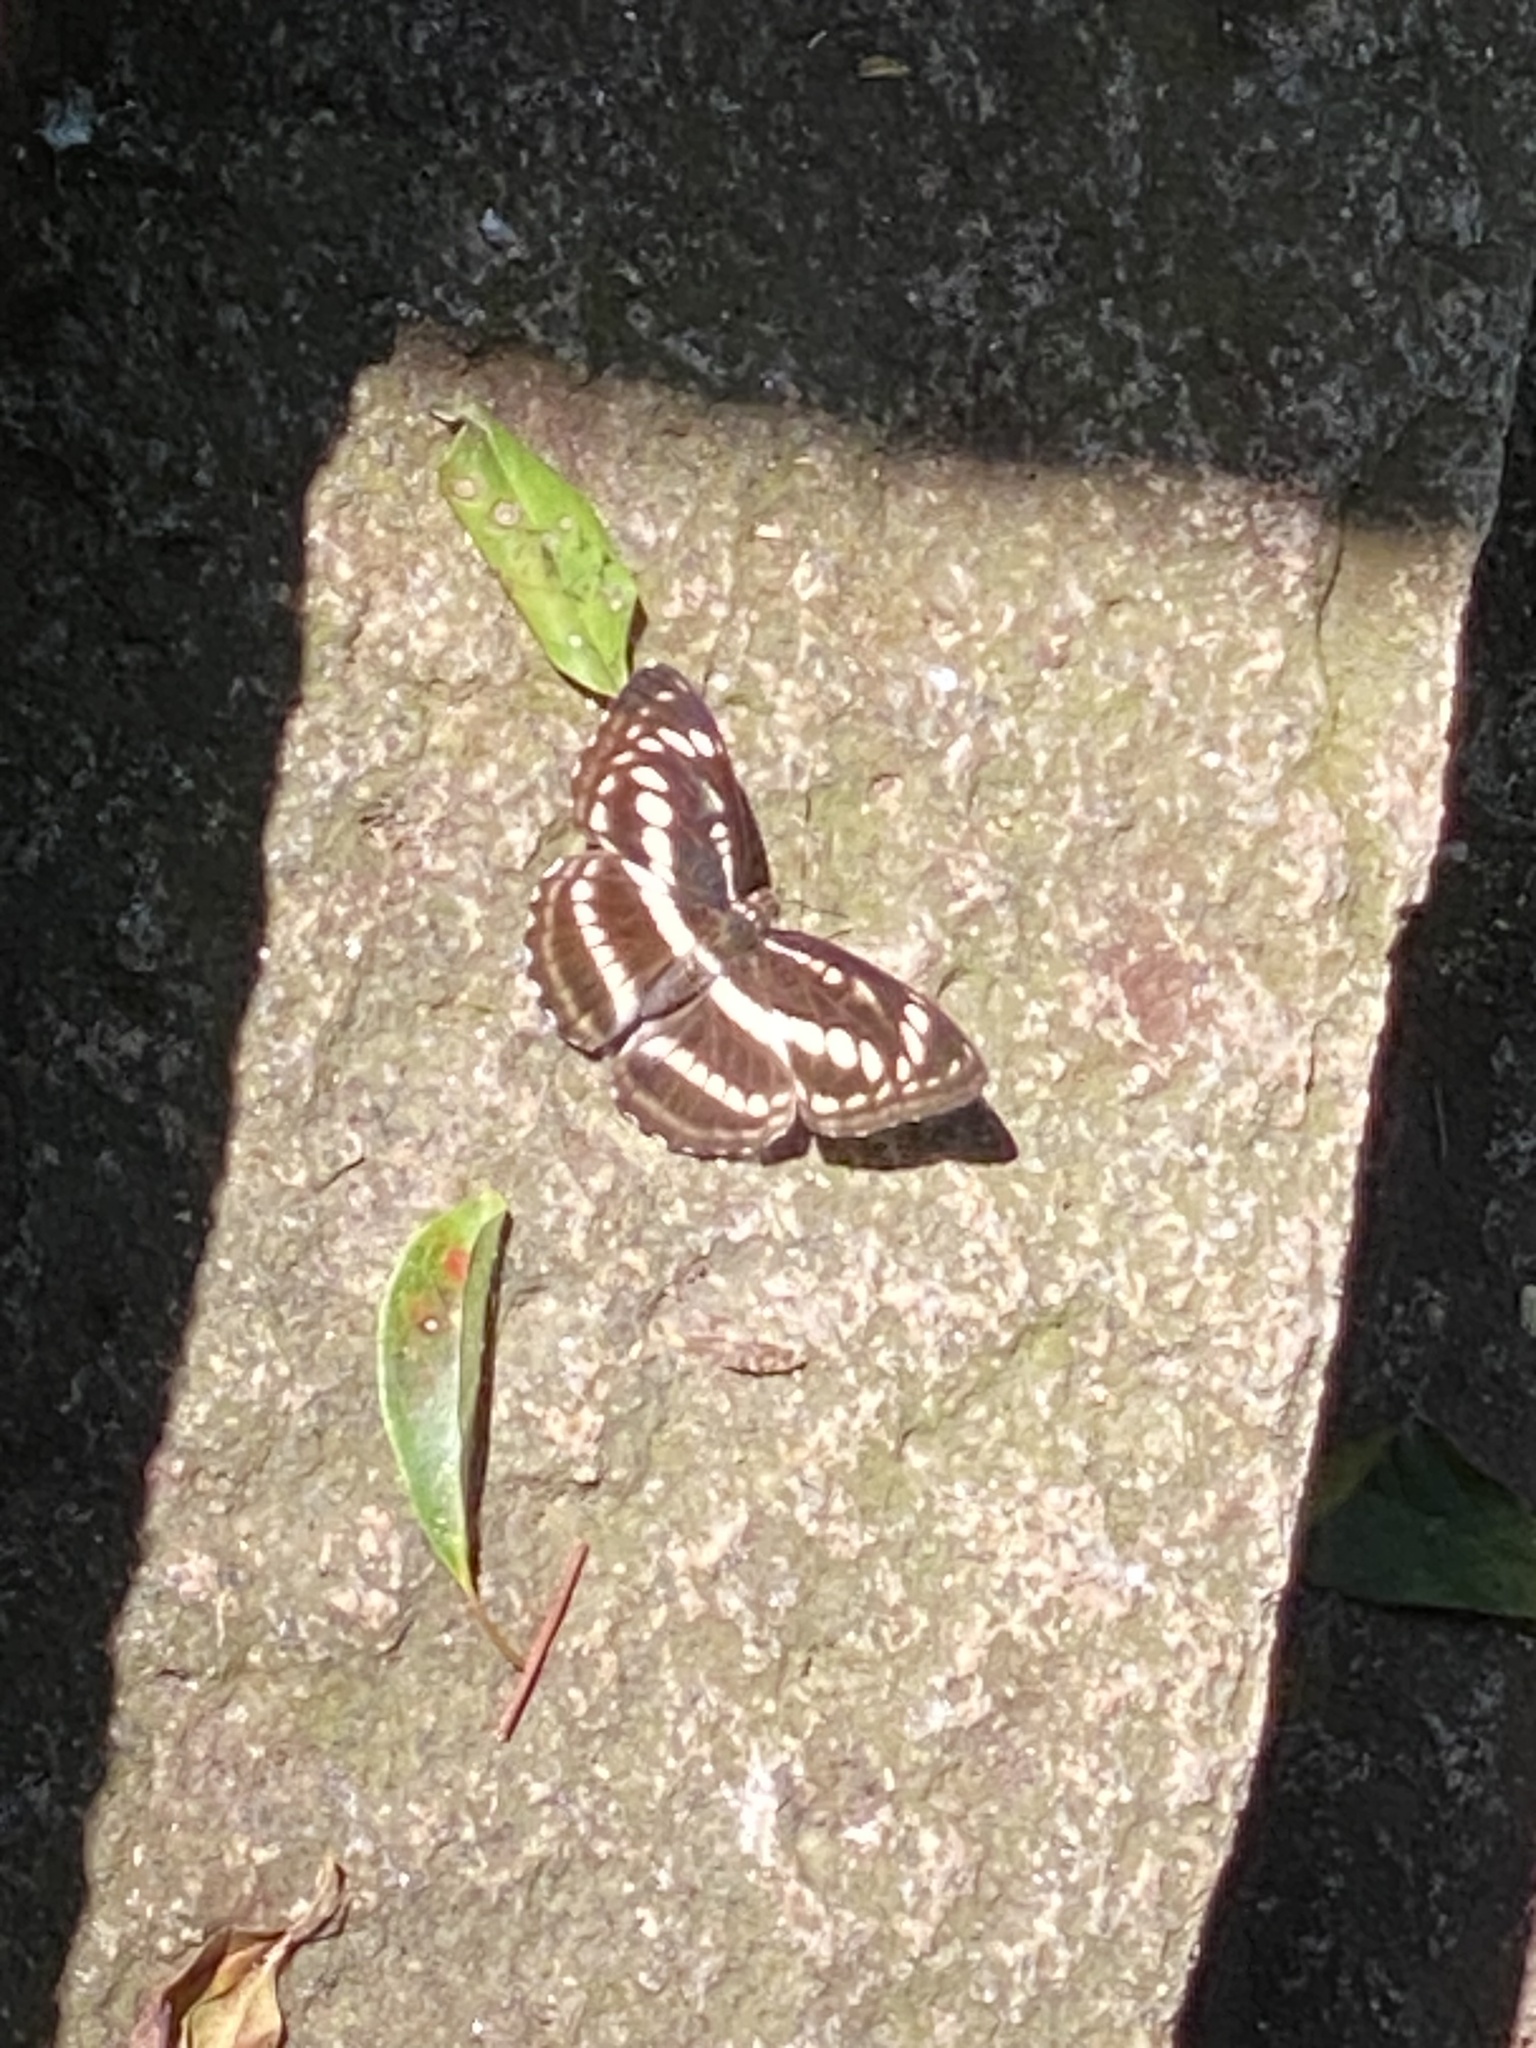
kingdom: Animalia
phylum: Arthropoda
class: Insecta
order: Lepidoptera
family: Nymphalidae
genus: Parathyma
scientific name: Parathyma selenophora
